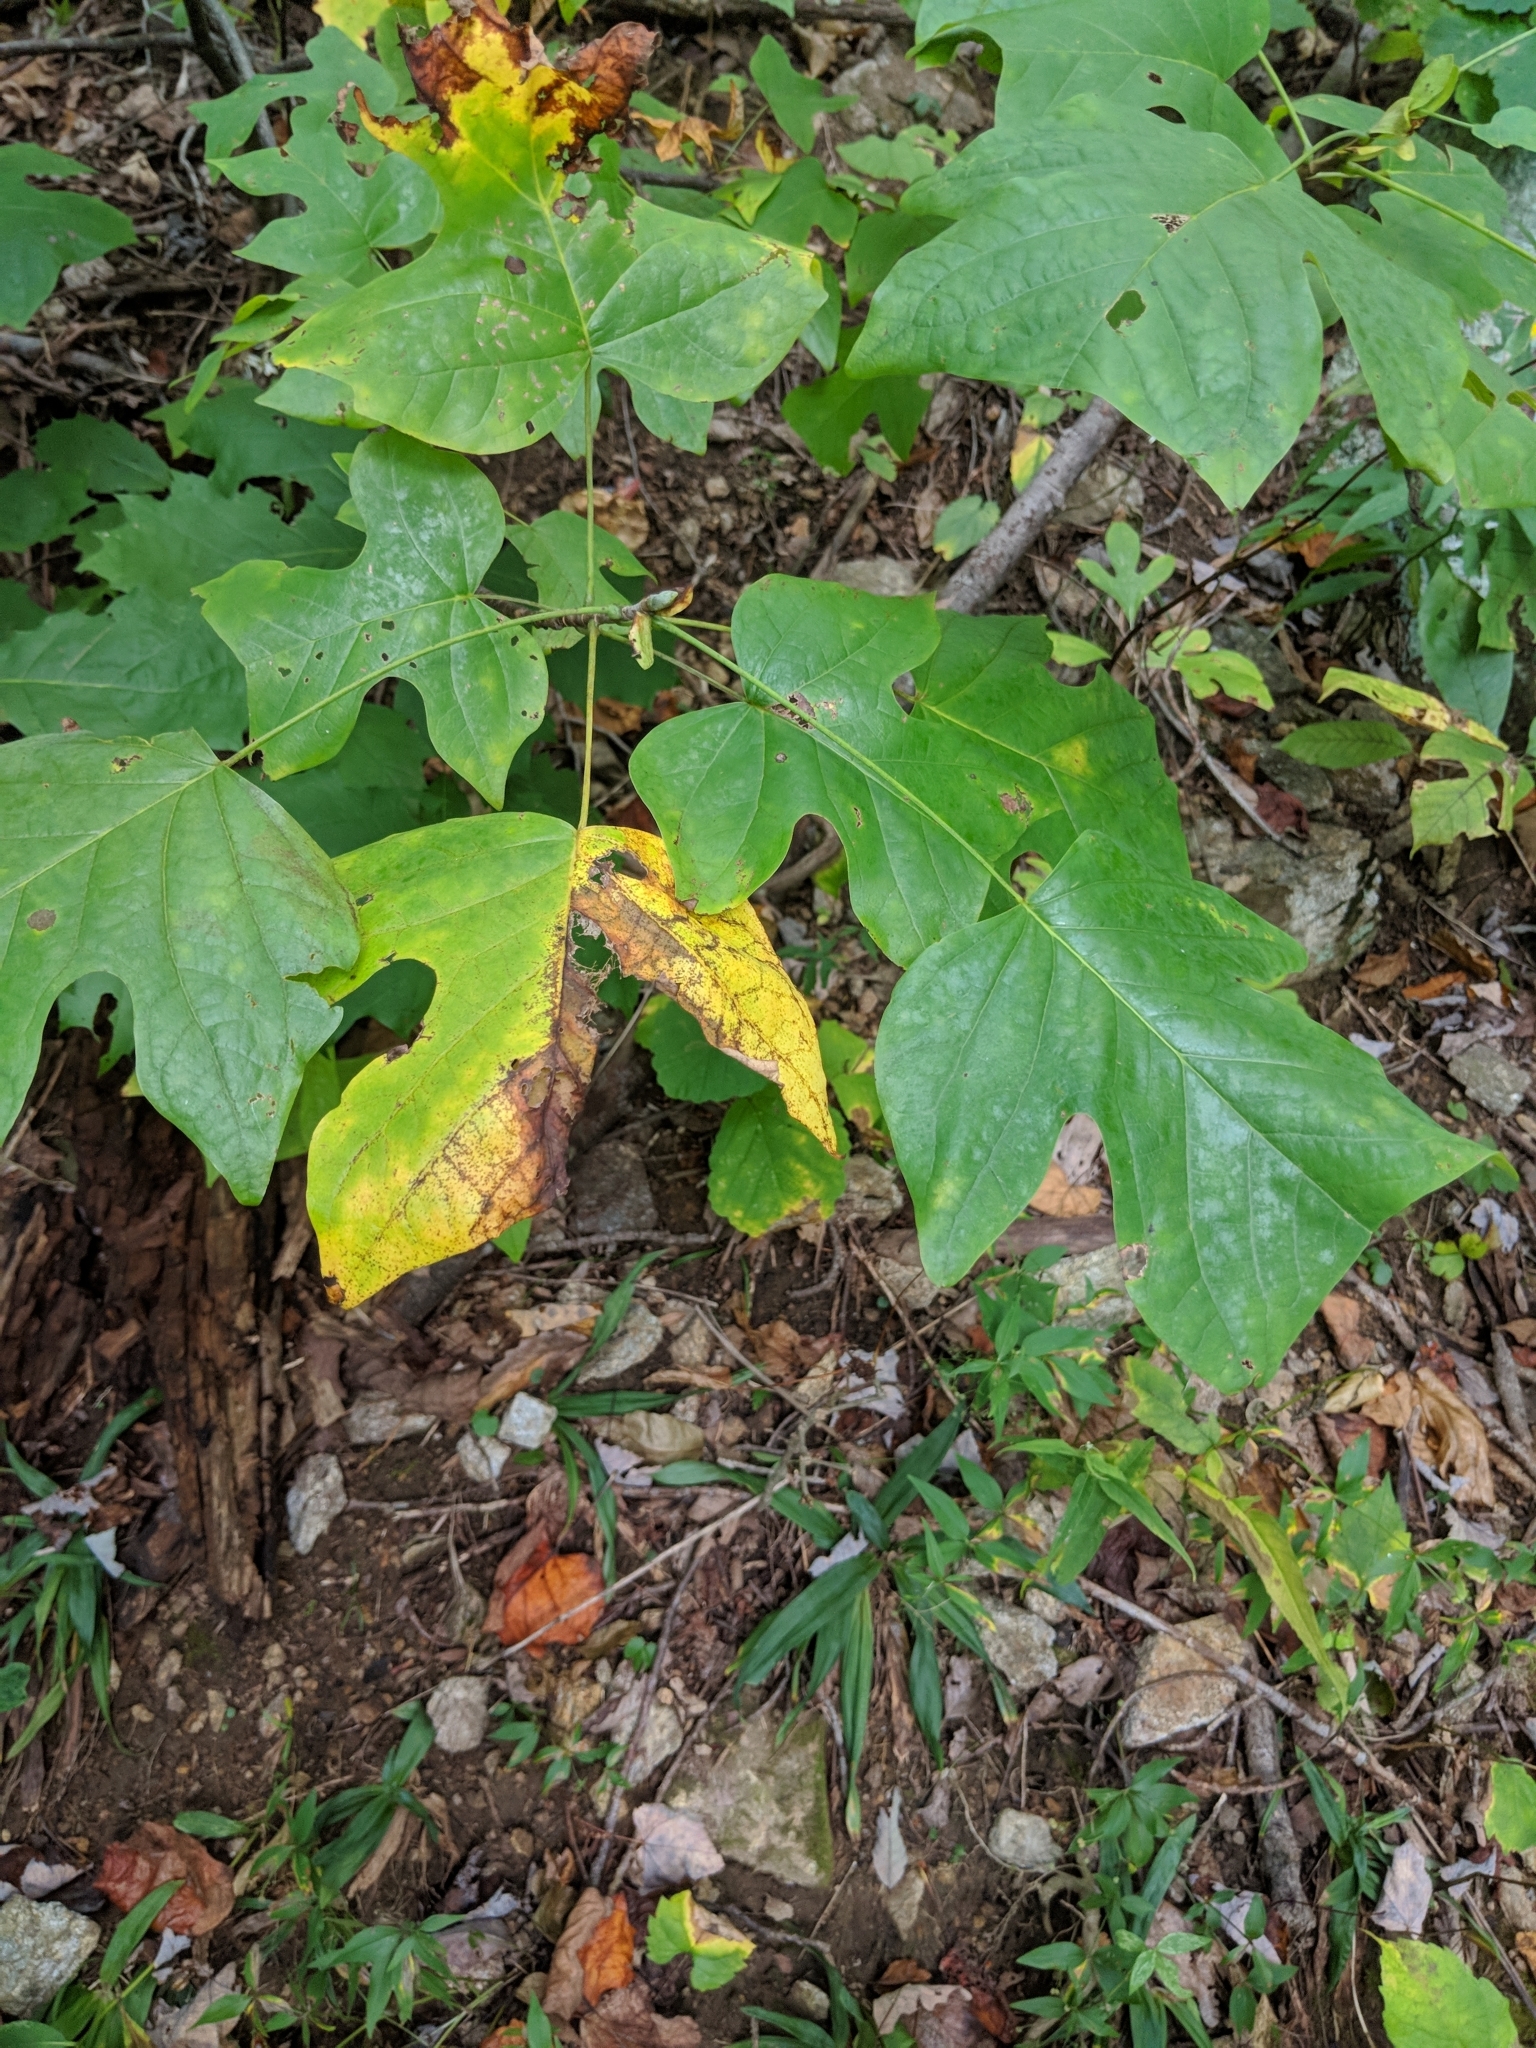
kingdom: Plantae
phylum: Tracheophyta
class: Magnoliopsida
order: Magnoliales
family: Magnoliaceae
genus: Liriodendron
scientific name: Liriodendron tulipifera
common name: Tulip tree
